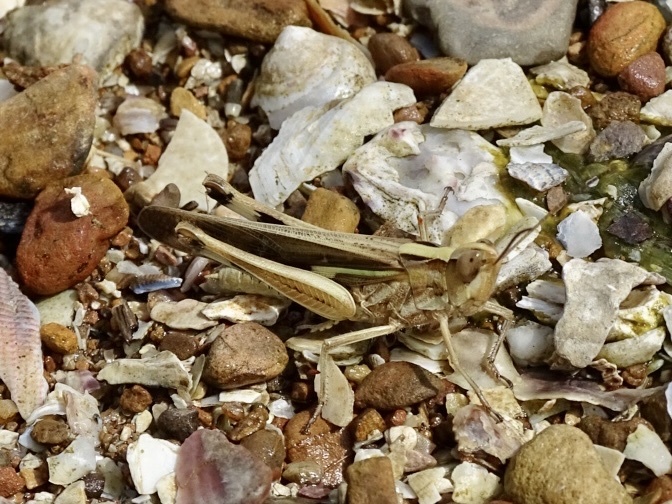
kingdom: Animalia
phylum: Arthropoda
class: Insecta
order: Orthoptera
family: Acrididae
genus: Aiolopus
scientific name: Aiolopus thalassinus
